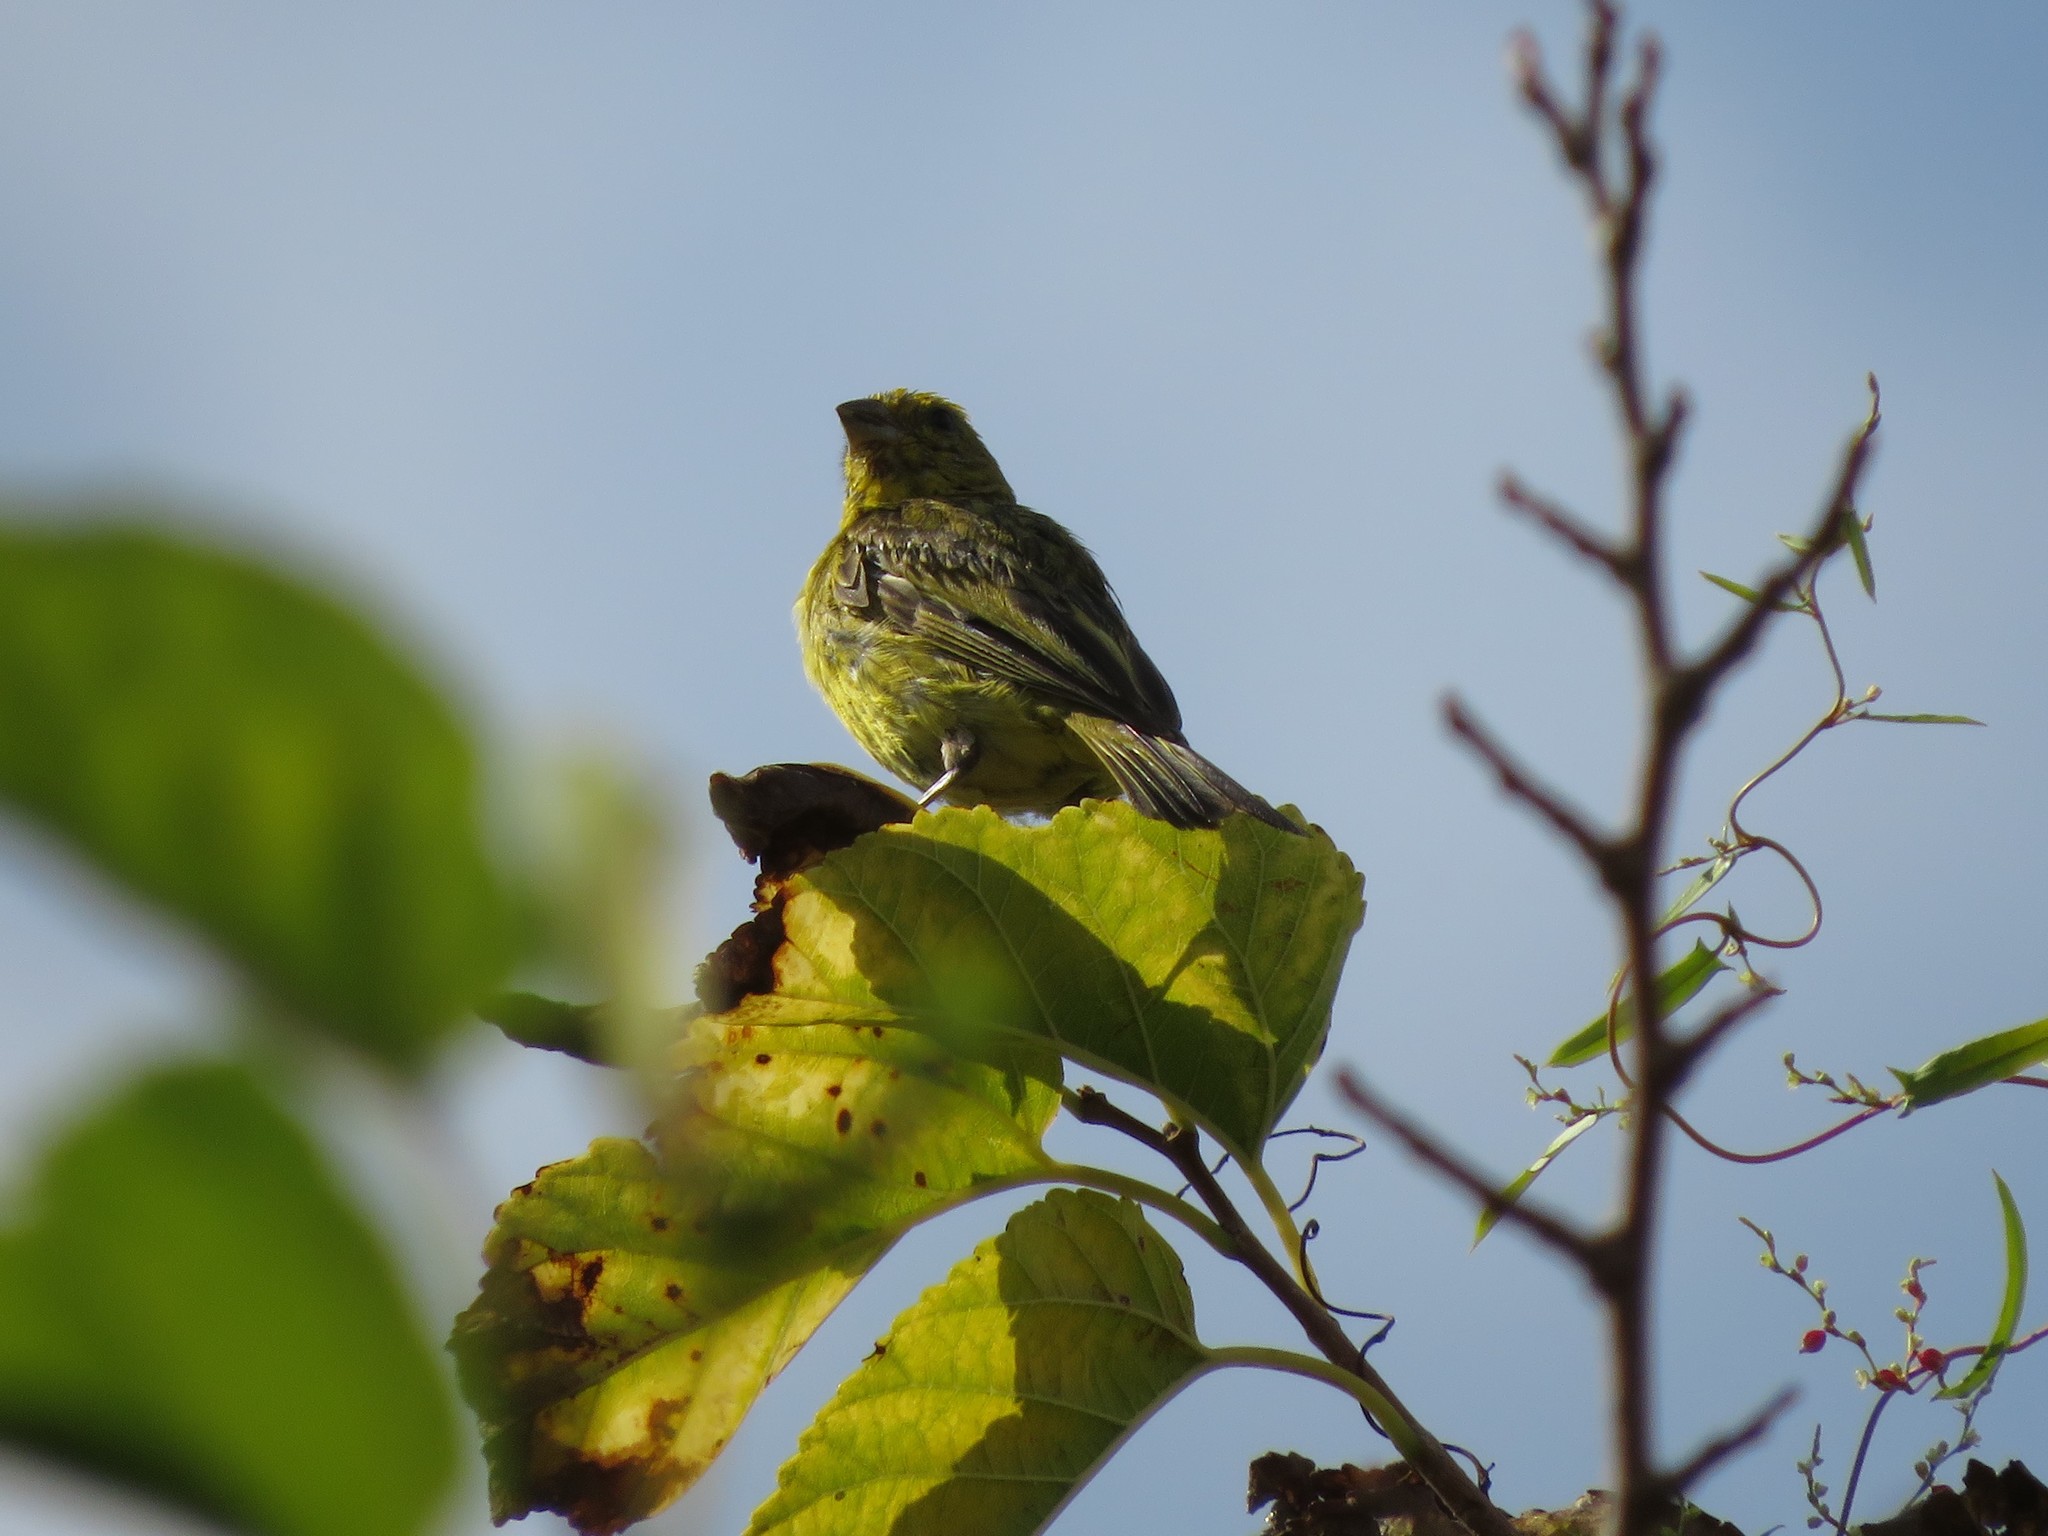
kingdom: Animalia
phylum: Chordata
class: Aves
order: Passeriformes
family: Thraupidae
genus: Sicalis
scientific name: Sicalis flaveola
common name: Saffron finch
